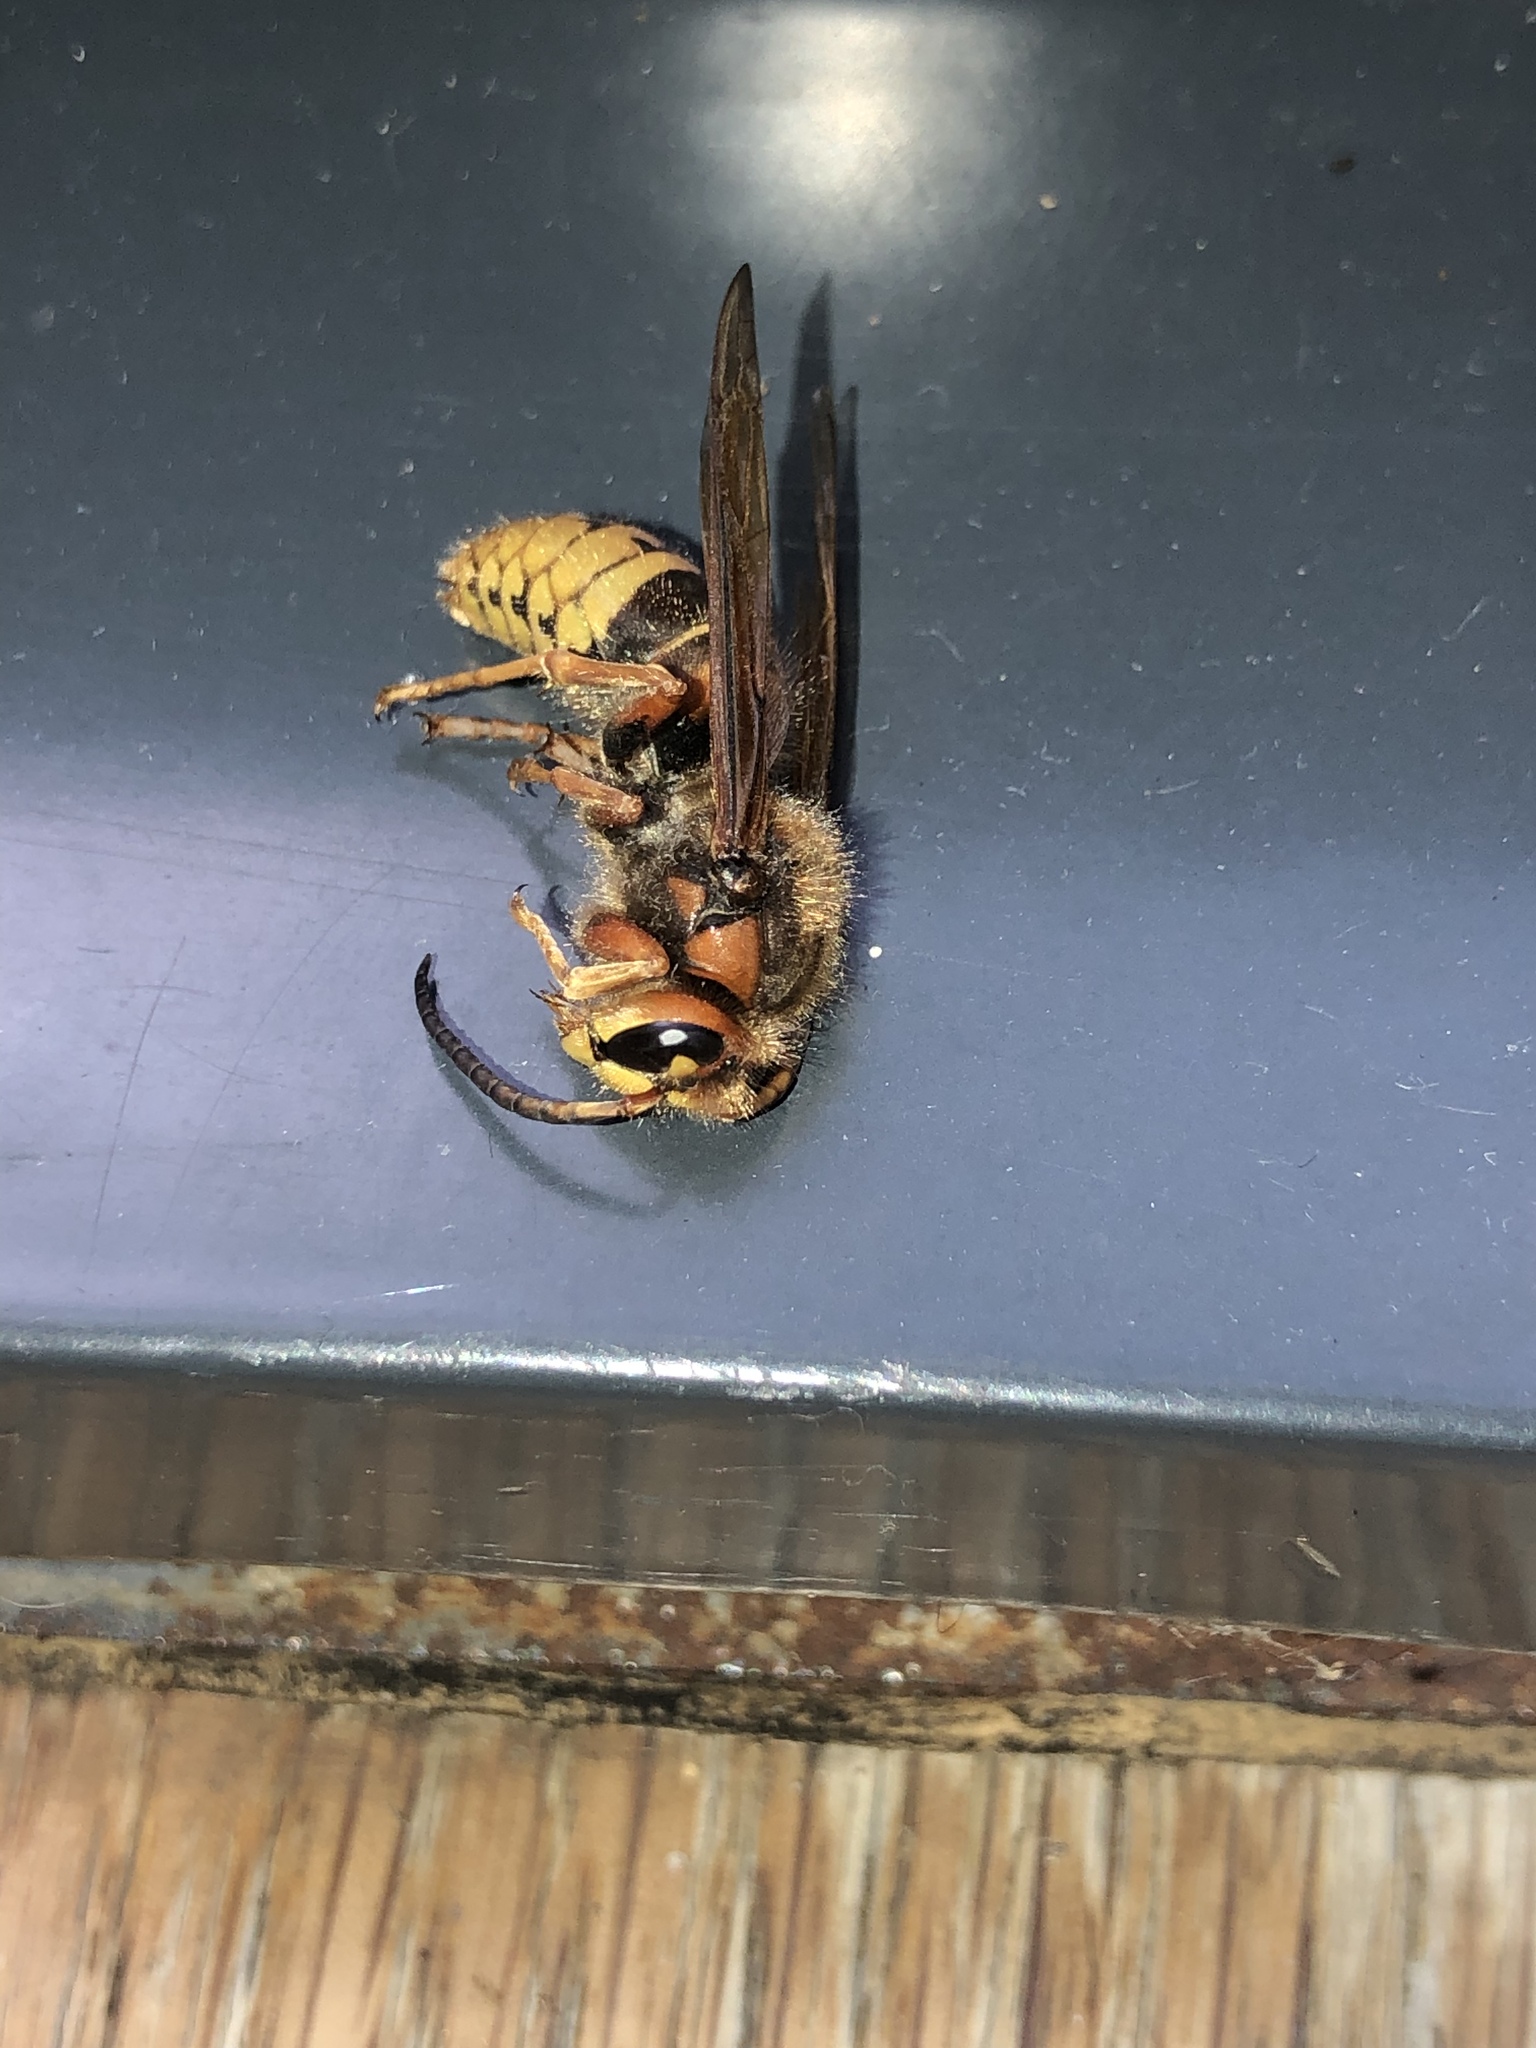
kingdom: Animalia
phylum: Arthropoda
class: Insecta
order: Hymenoptera
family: Vespidae
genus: Vespa
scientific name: Vespa crabro
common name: Hornet
